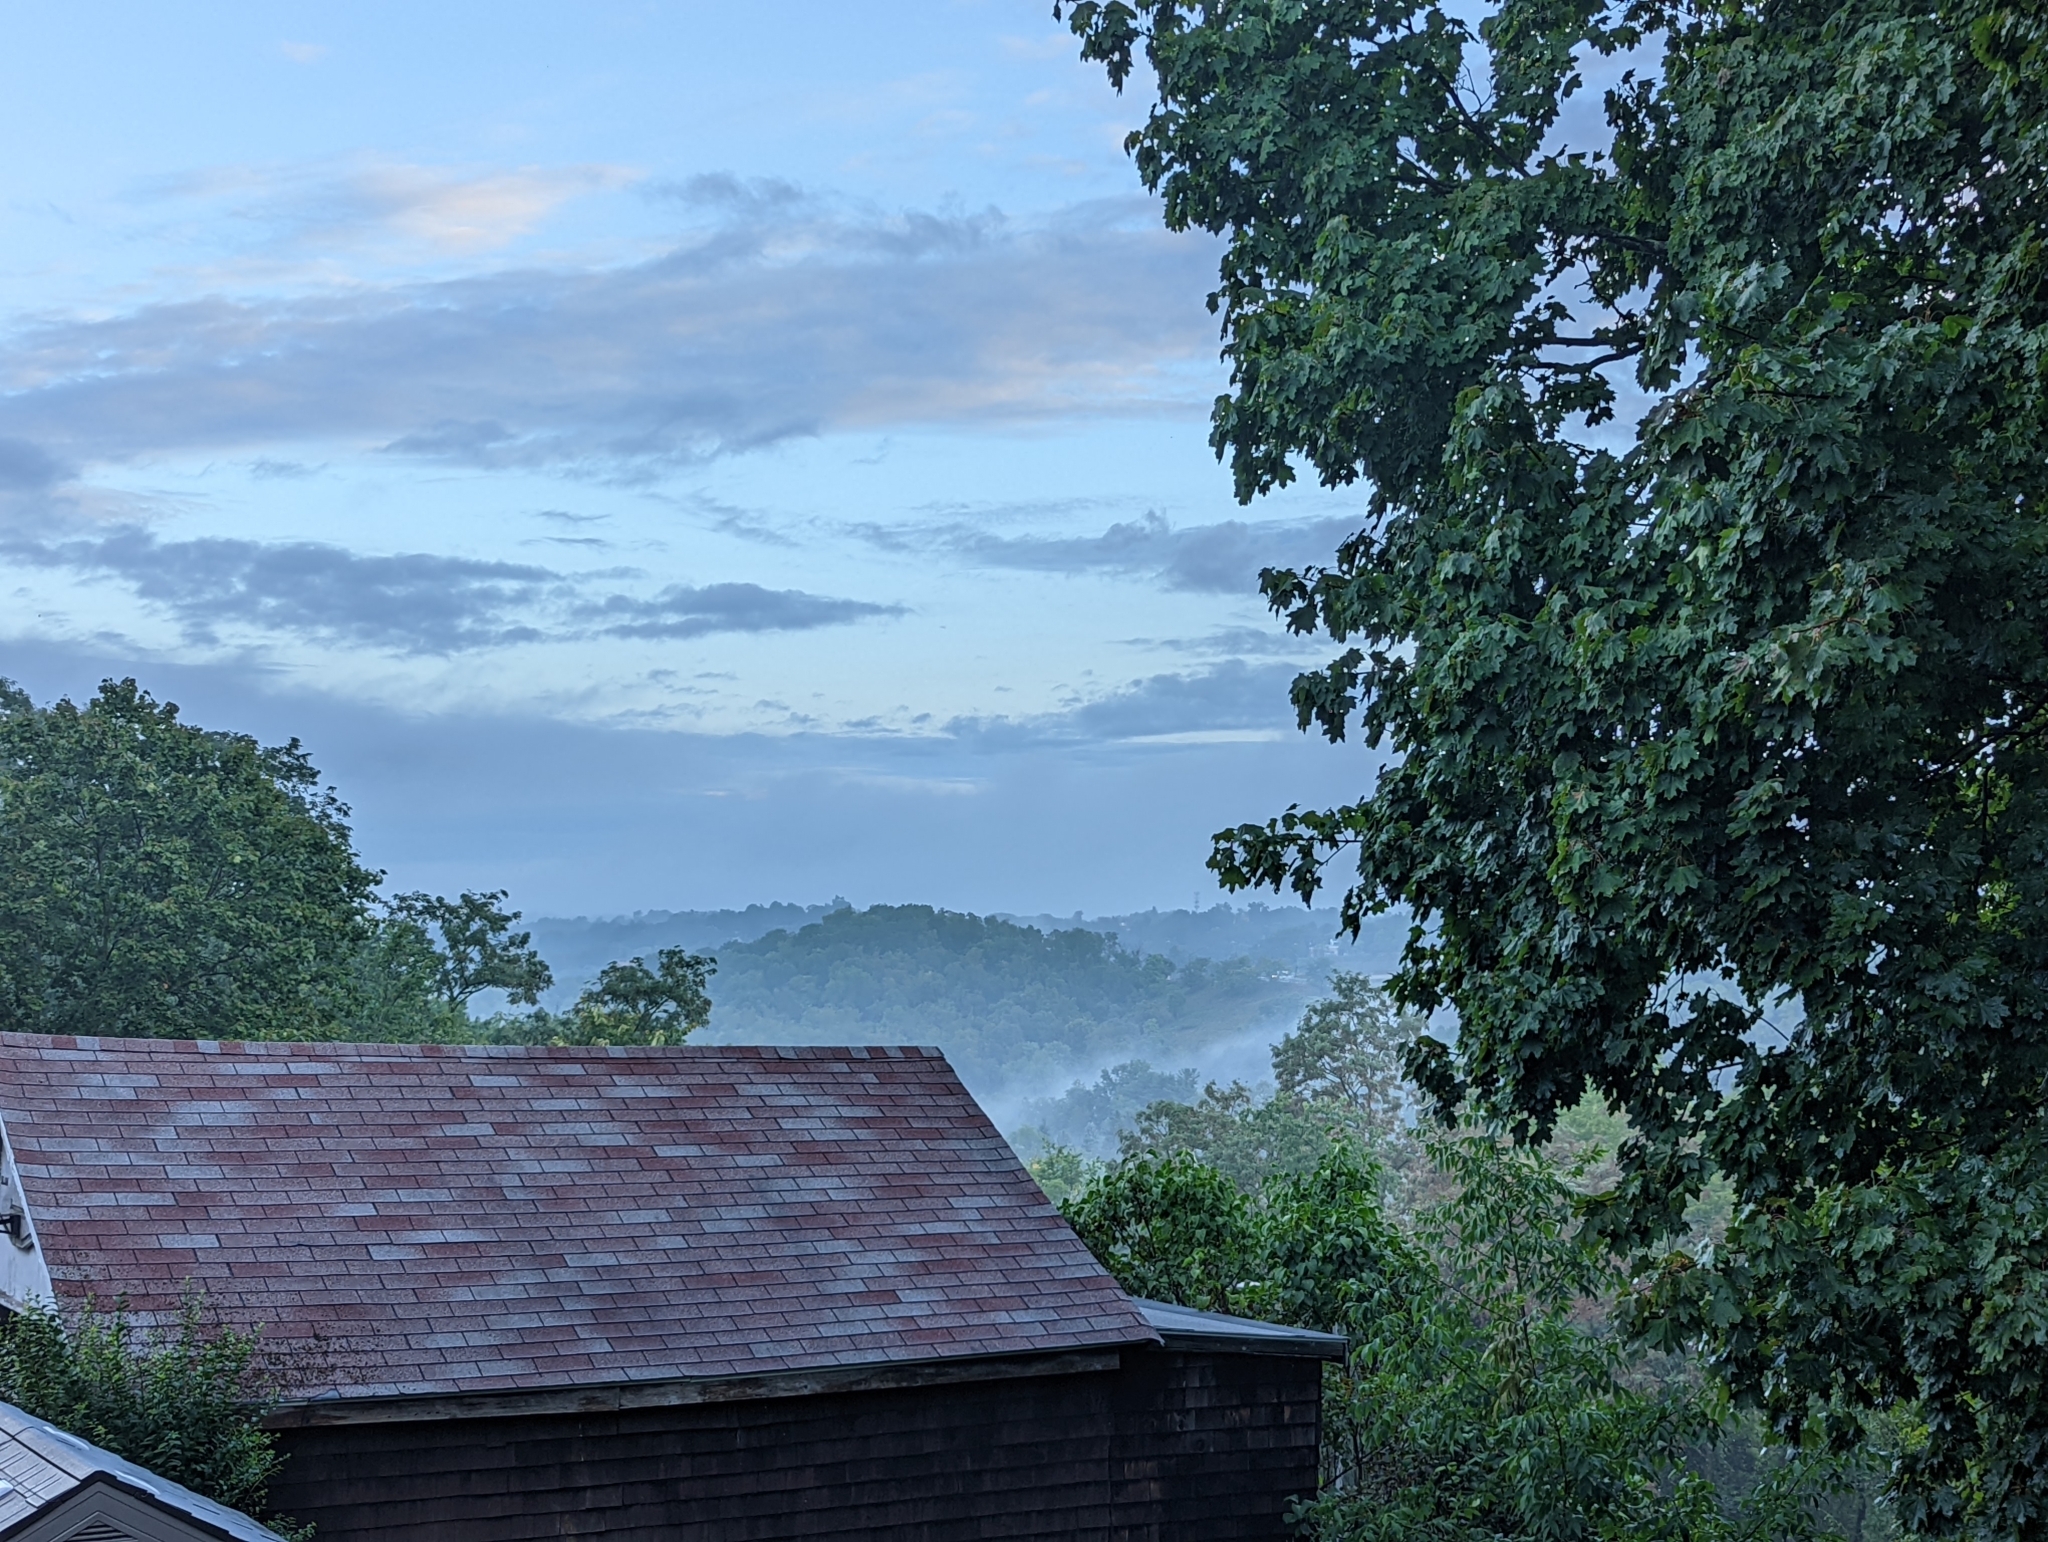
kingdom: Animalia
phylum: Chordata
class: Aves
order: Passeriformes
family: Troglodytidae
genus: Thryothorus
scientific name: Thryothorus ludovicianus
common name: Carolina wren
